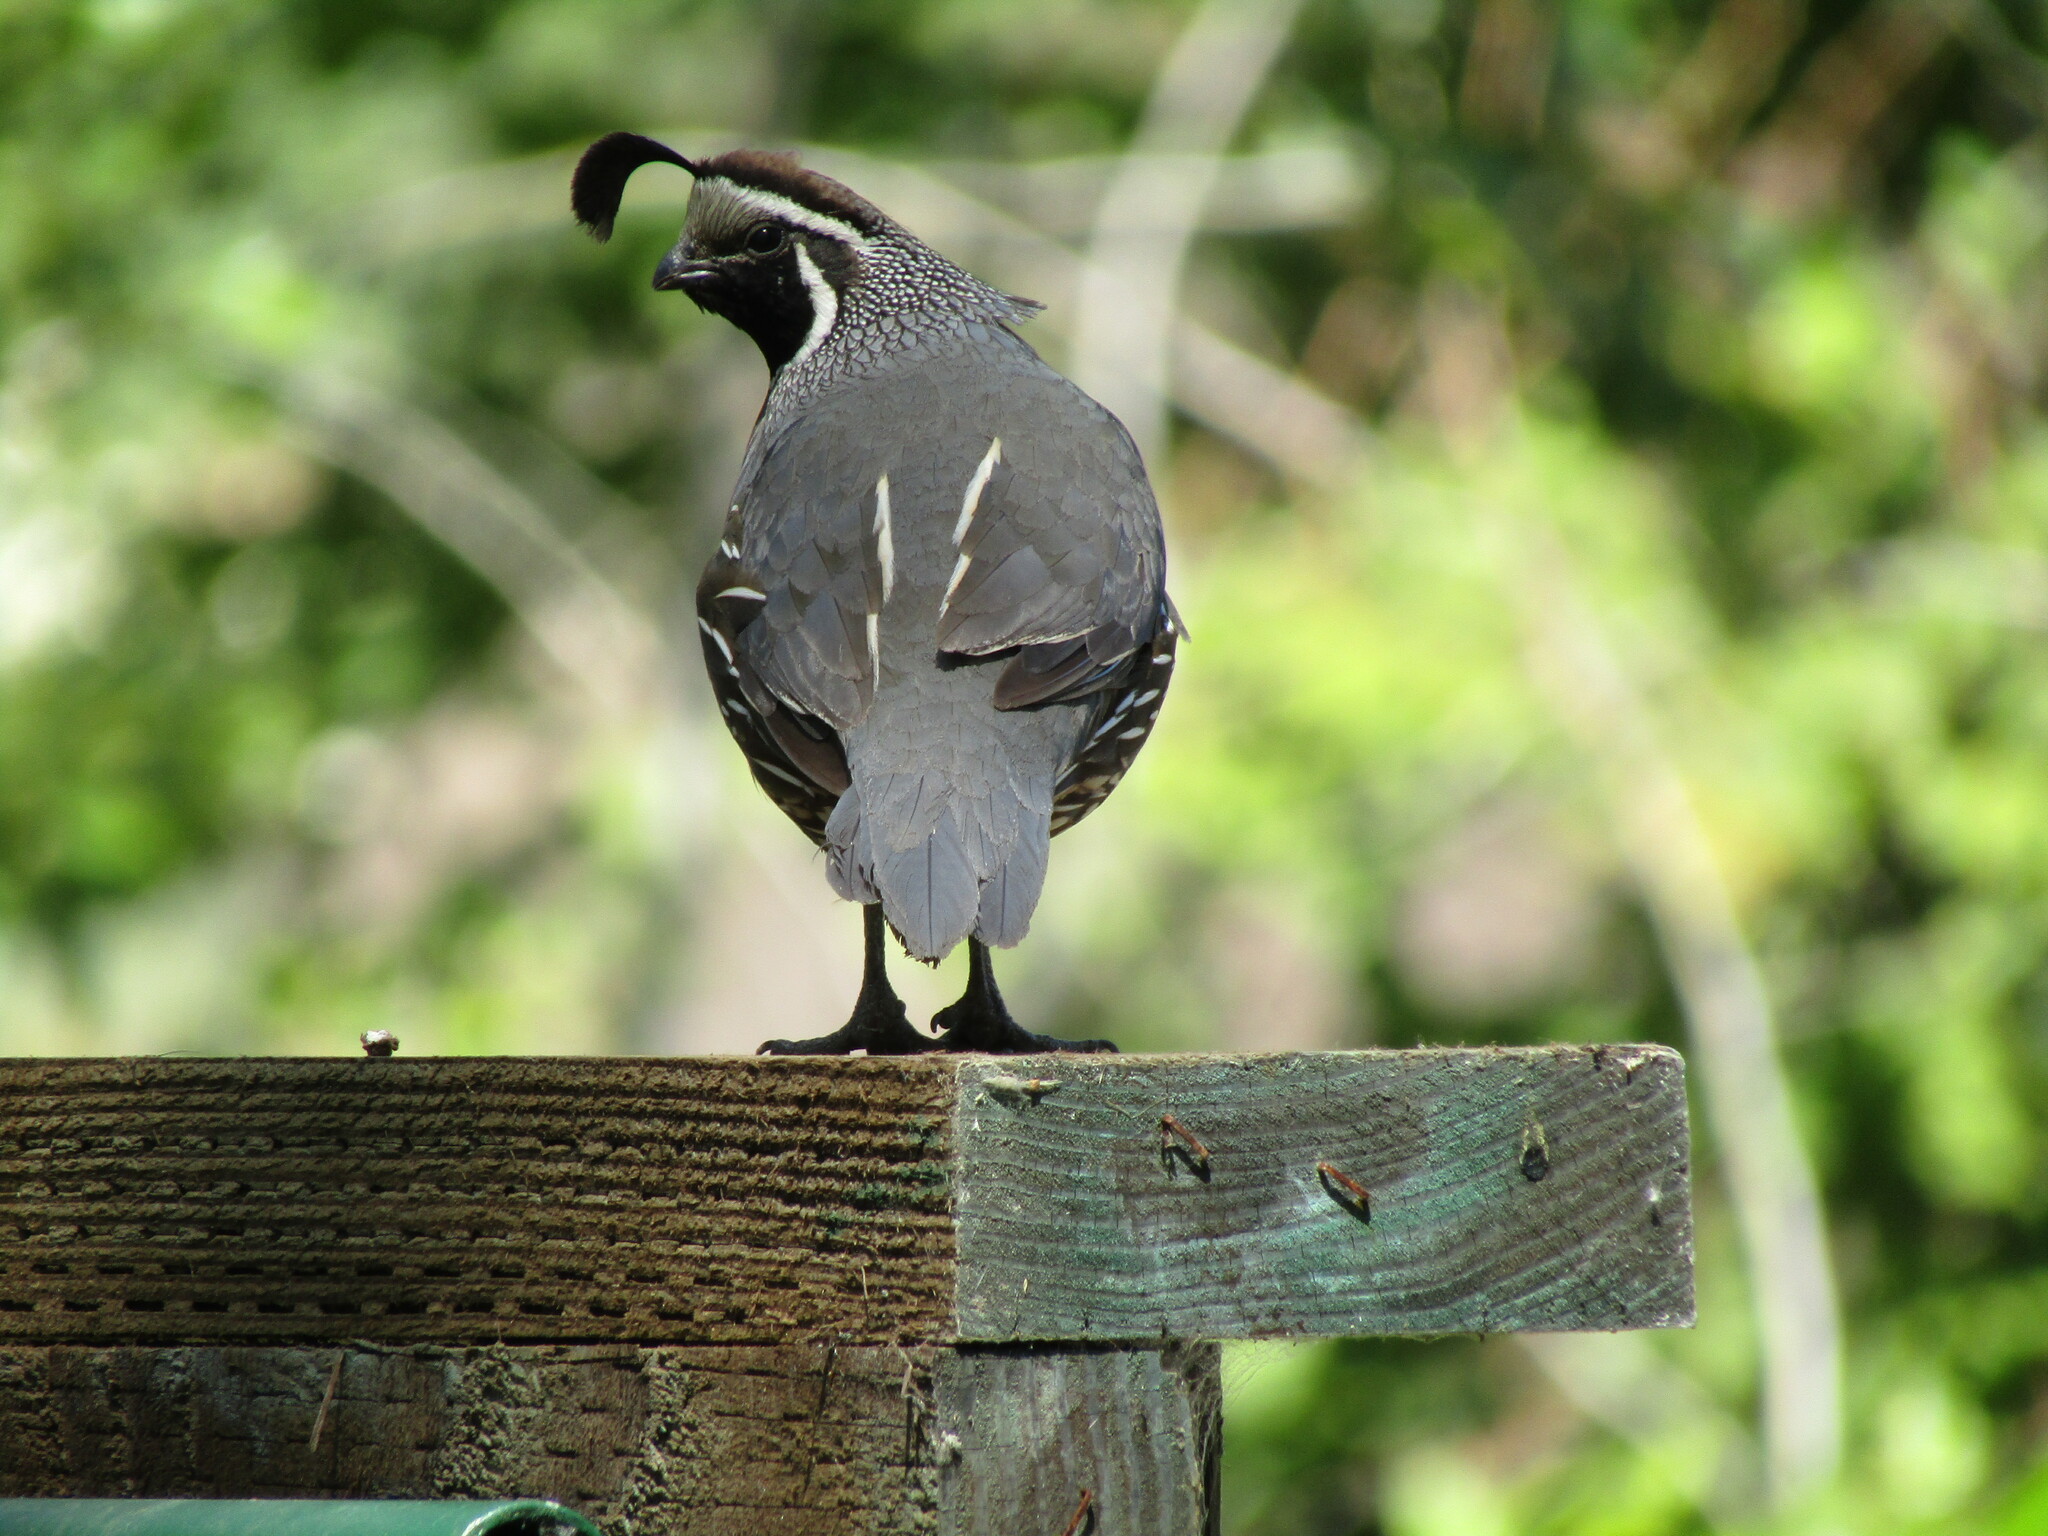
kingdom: Animalia
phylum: Chordata
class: Aves
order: Galliformes
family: Odontophoridae
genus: Callipepla
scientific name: Callipepla californica
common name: California quail
